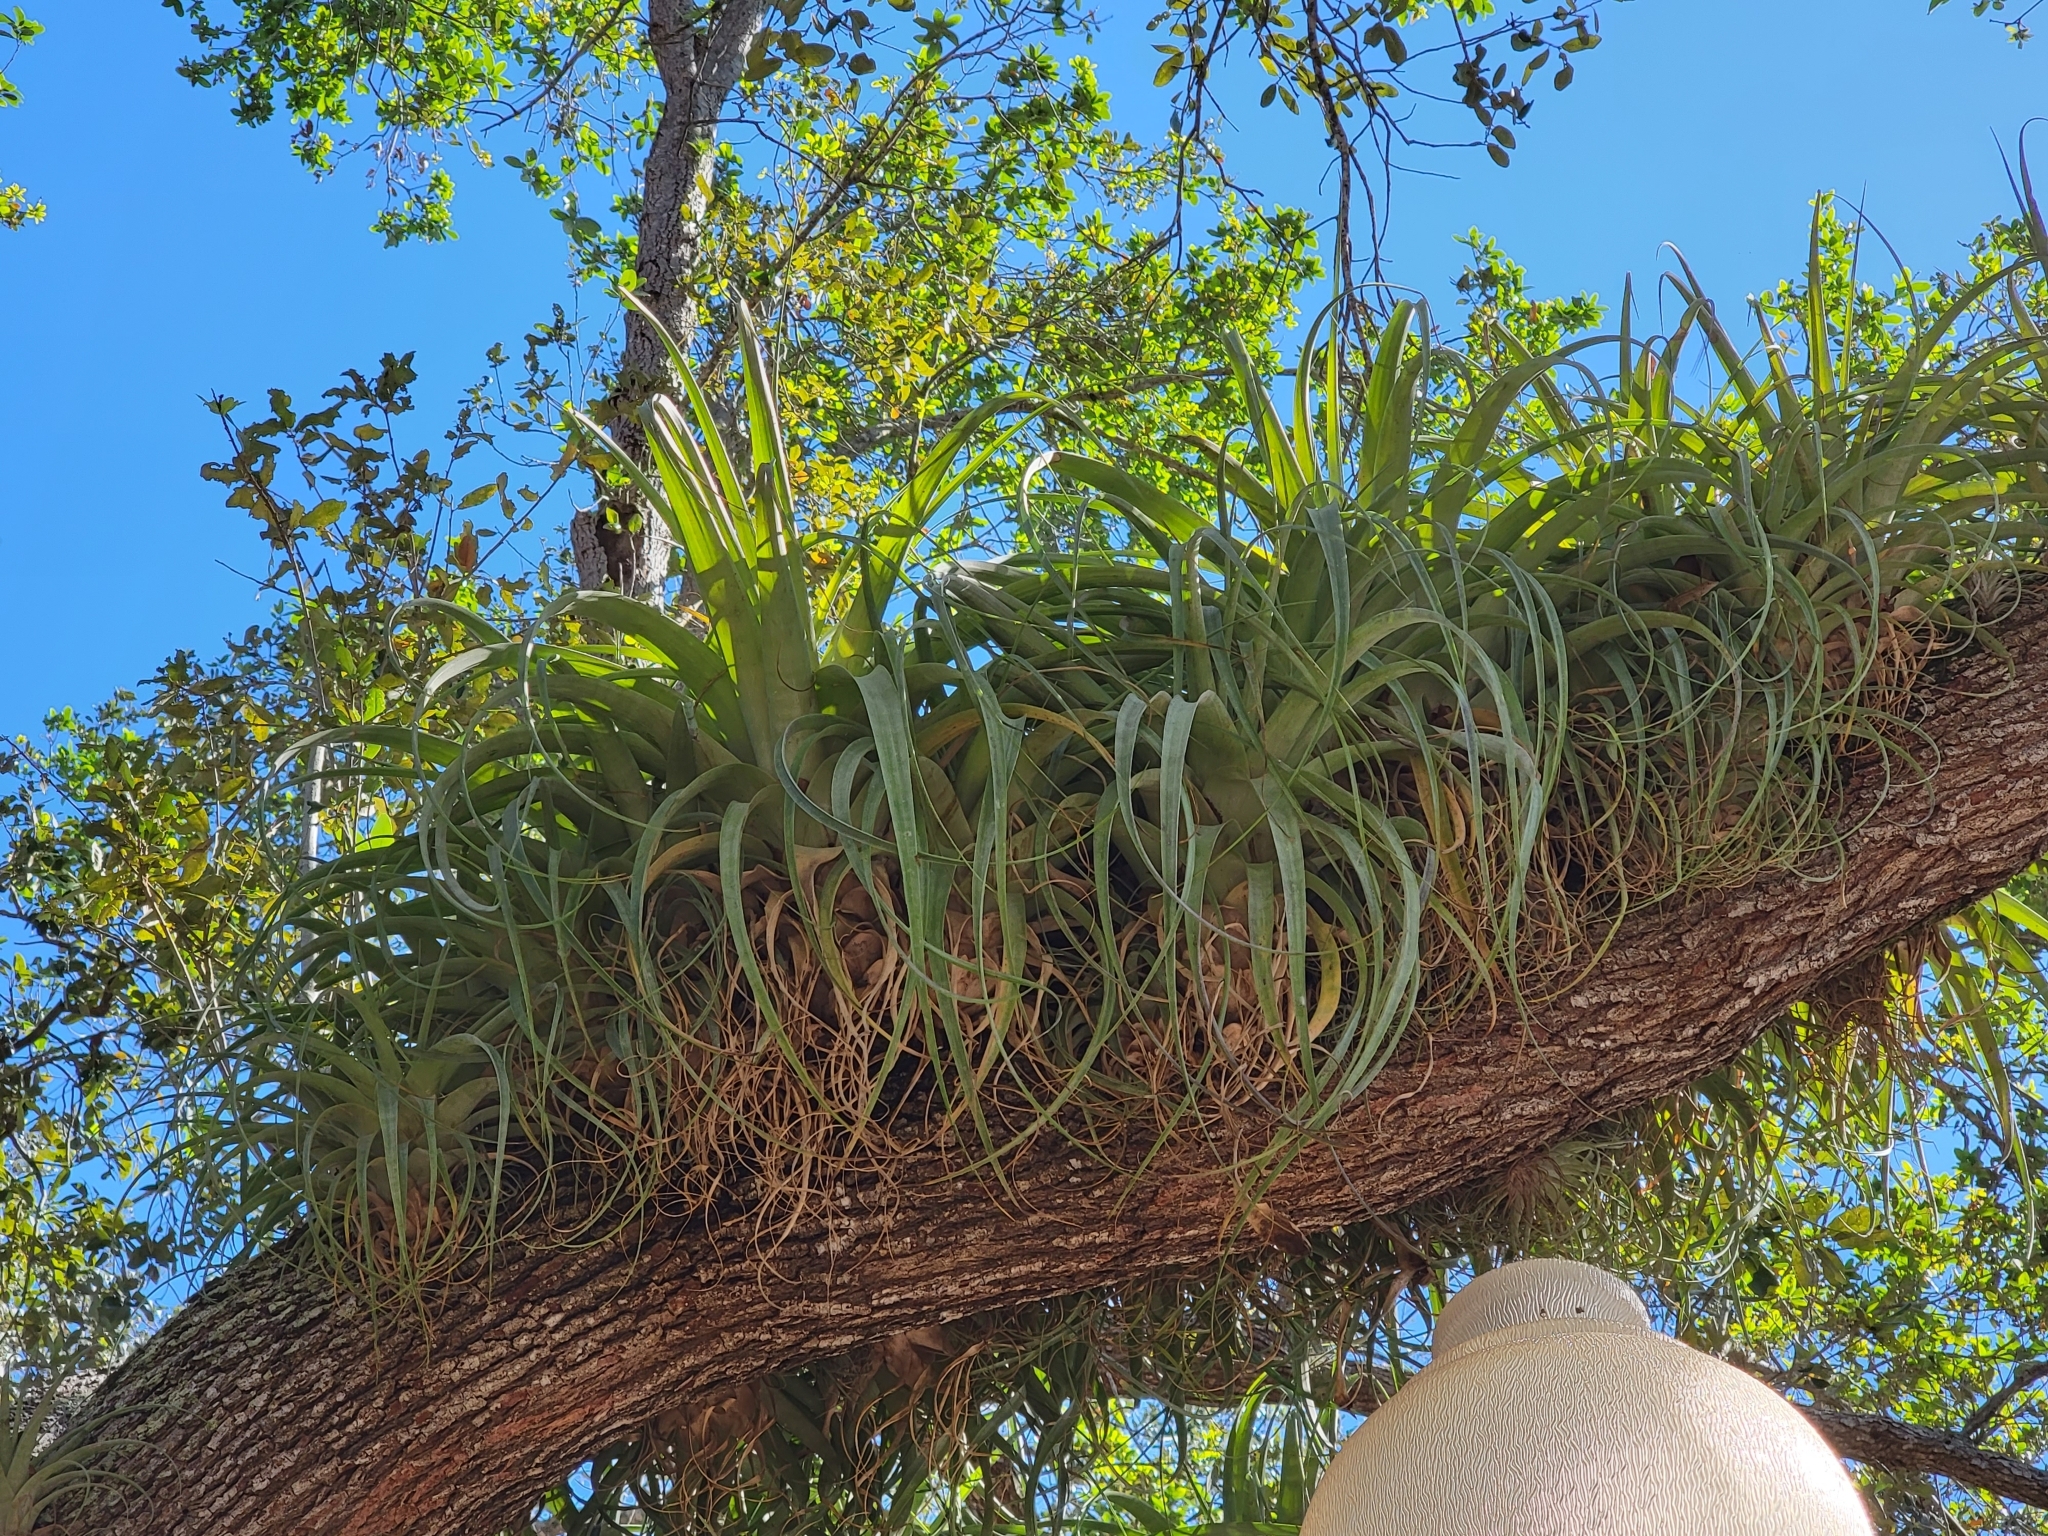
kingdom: Plantae
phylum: Tracheophyta
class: Liliopsida
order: Poales
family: Bromeliaceae
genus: Tillandsia
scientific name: Tillandsia utriculata
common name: Wild pine
